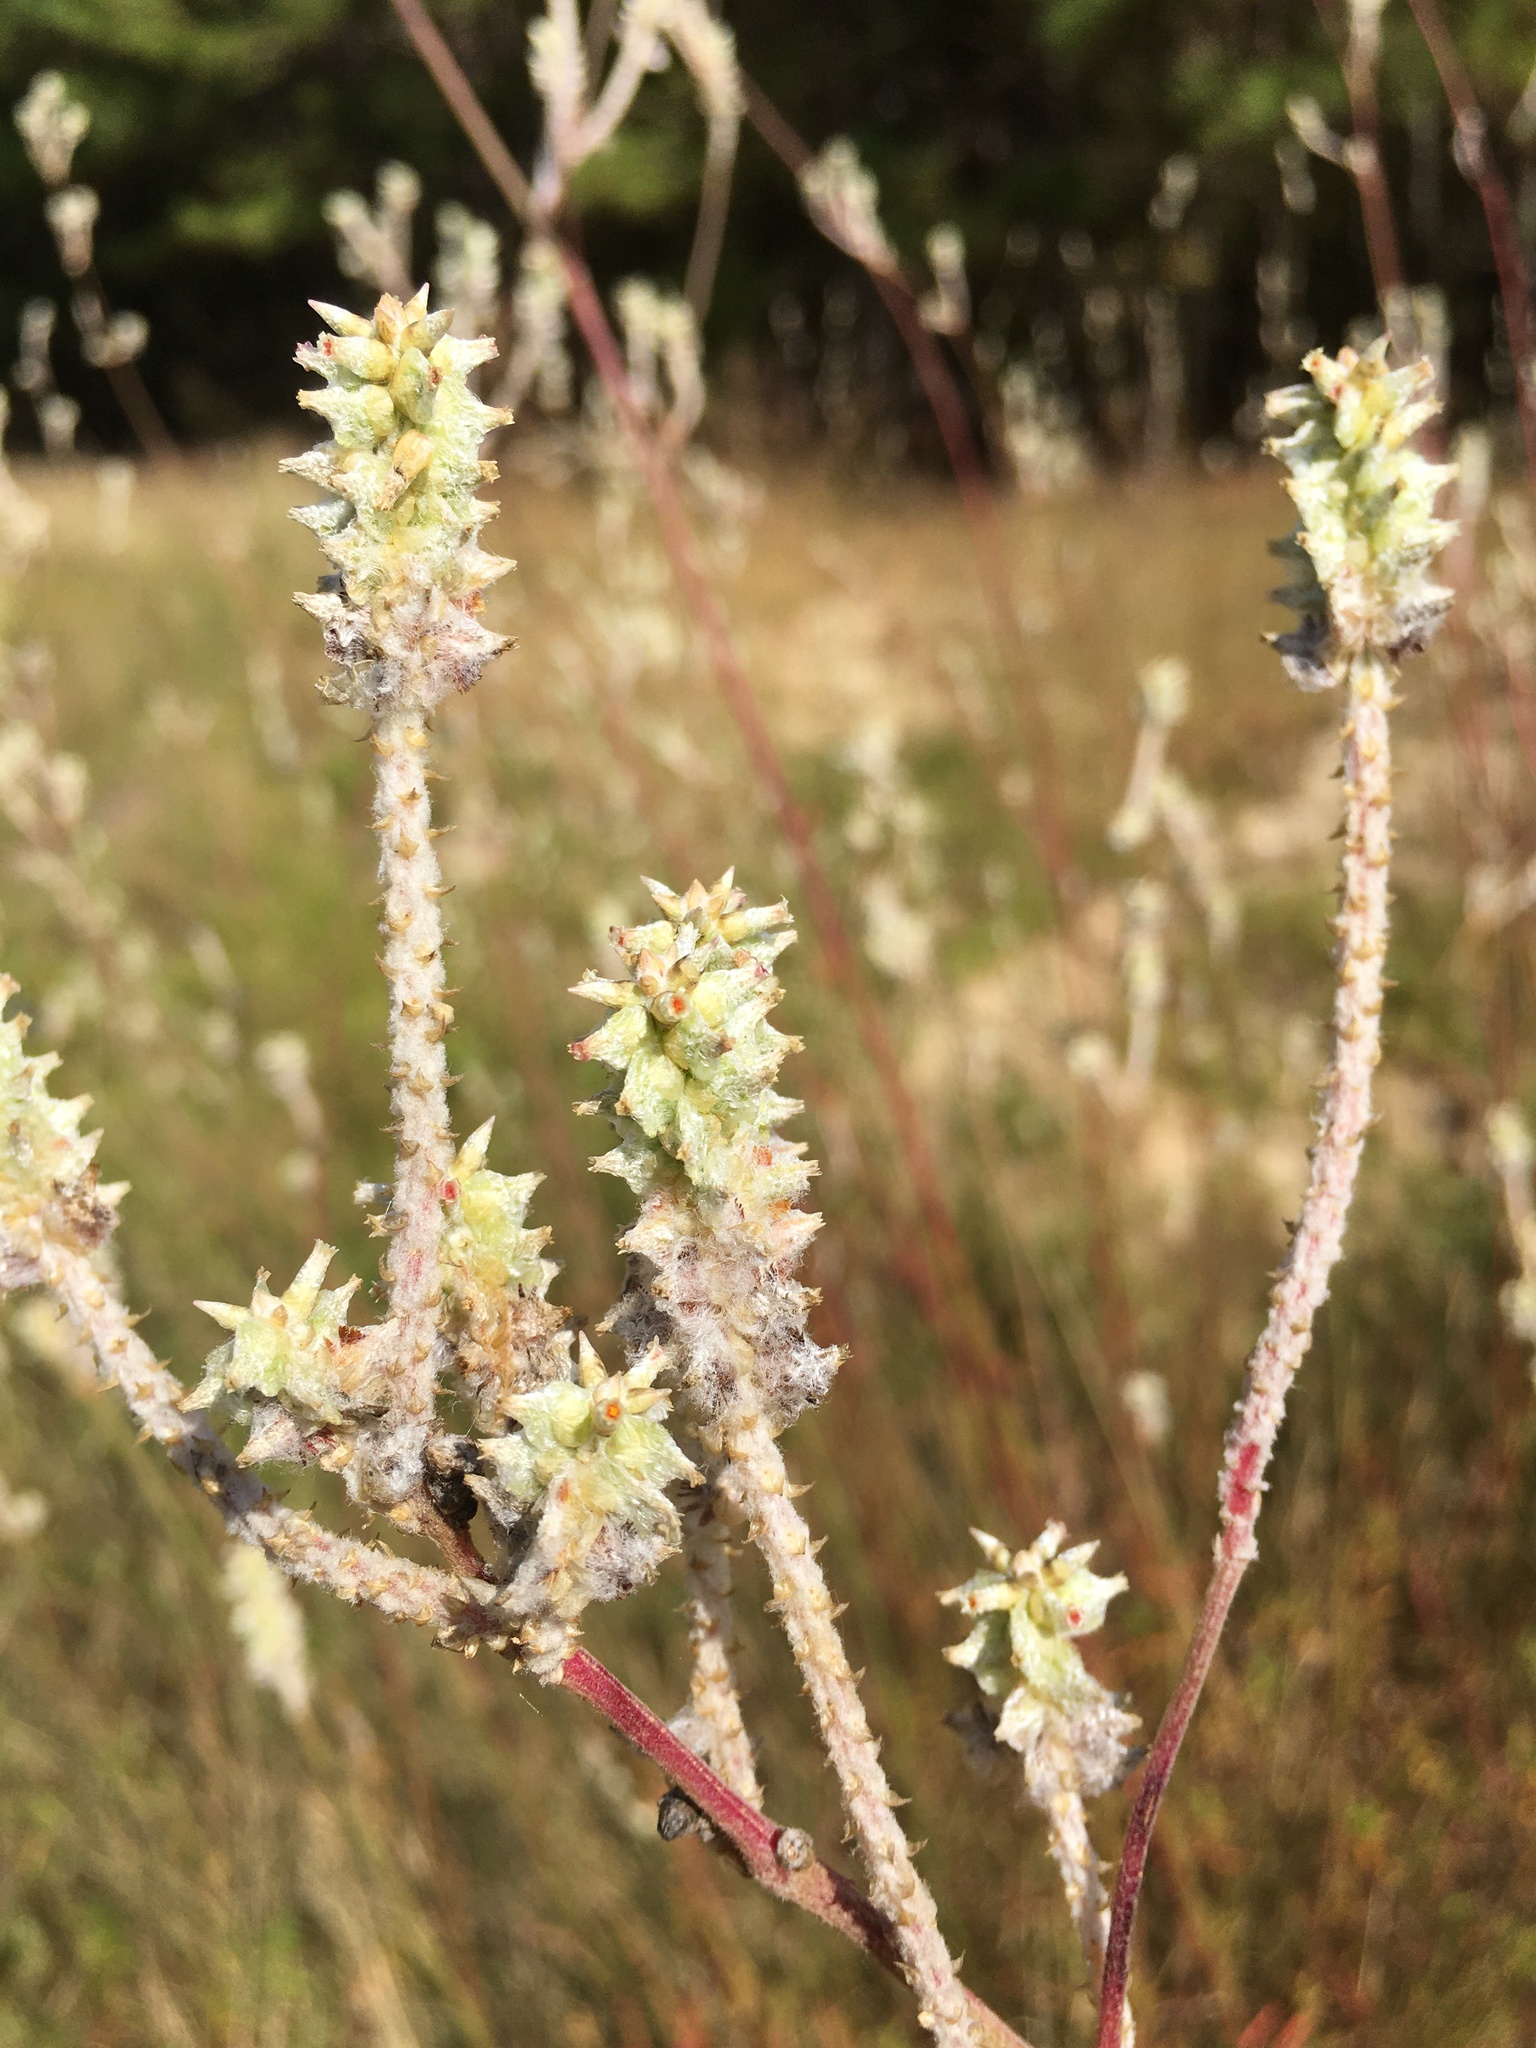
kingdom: Plantae
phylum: Tracheophyta
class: Magnoliopsida
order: Caryophyllales
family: Amaranthaceae
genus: Froelichia
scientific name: Froelichia floridana
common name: Florida snake-cotton
